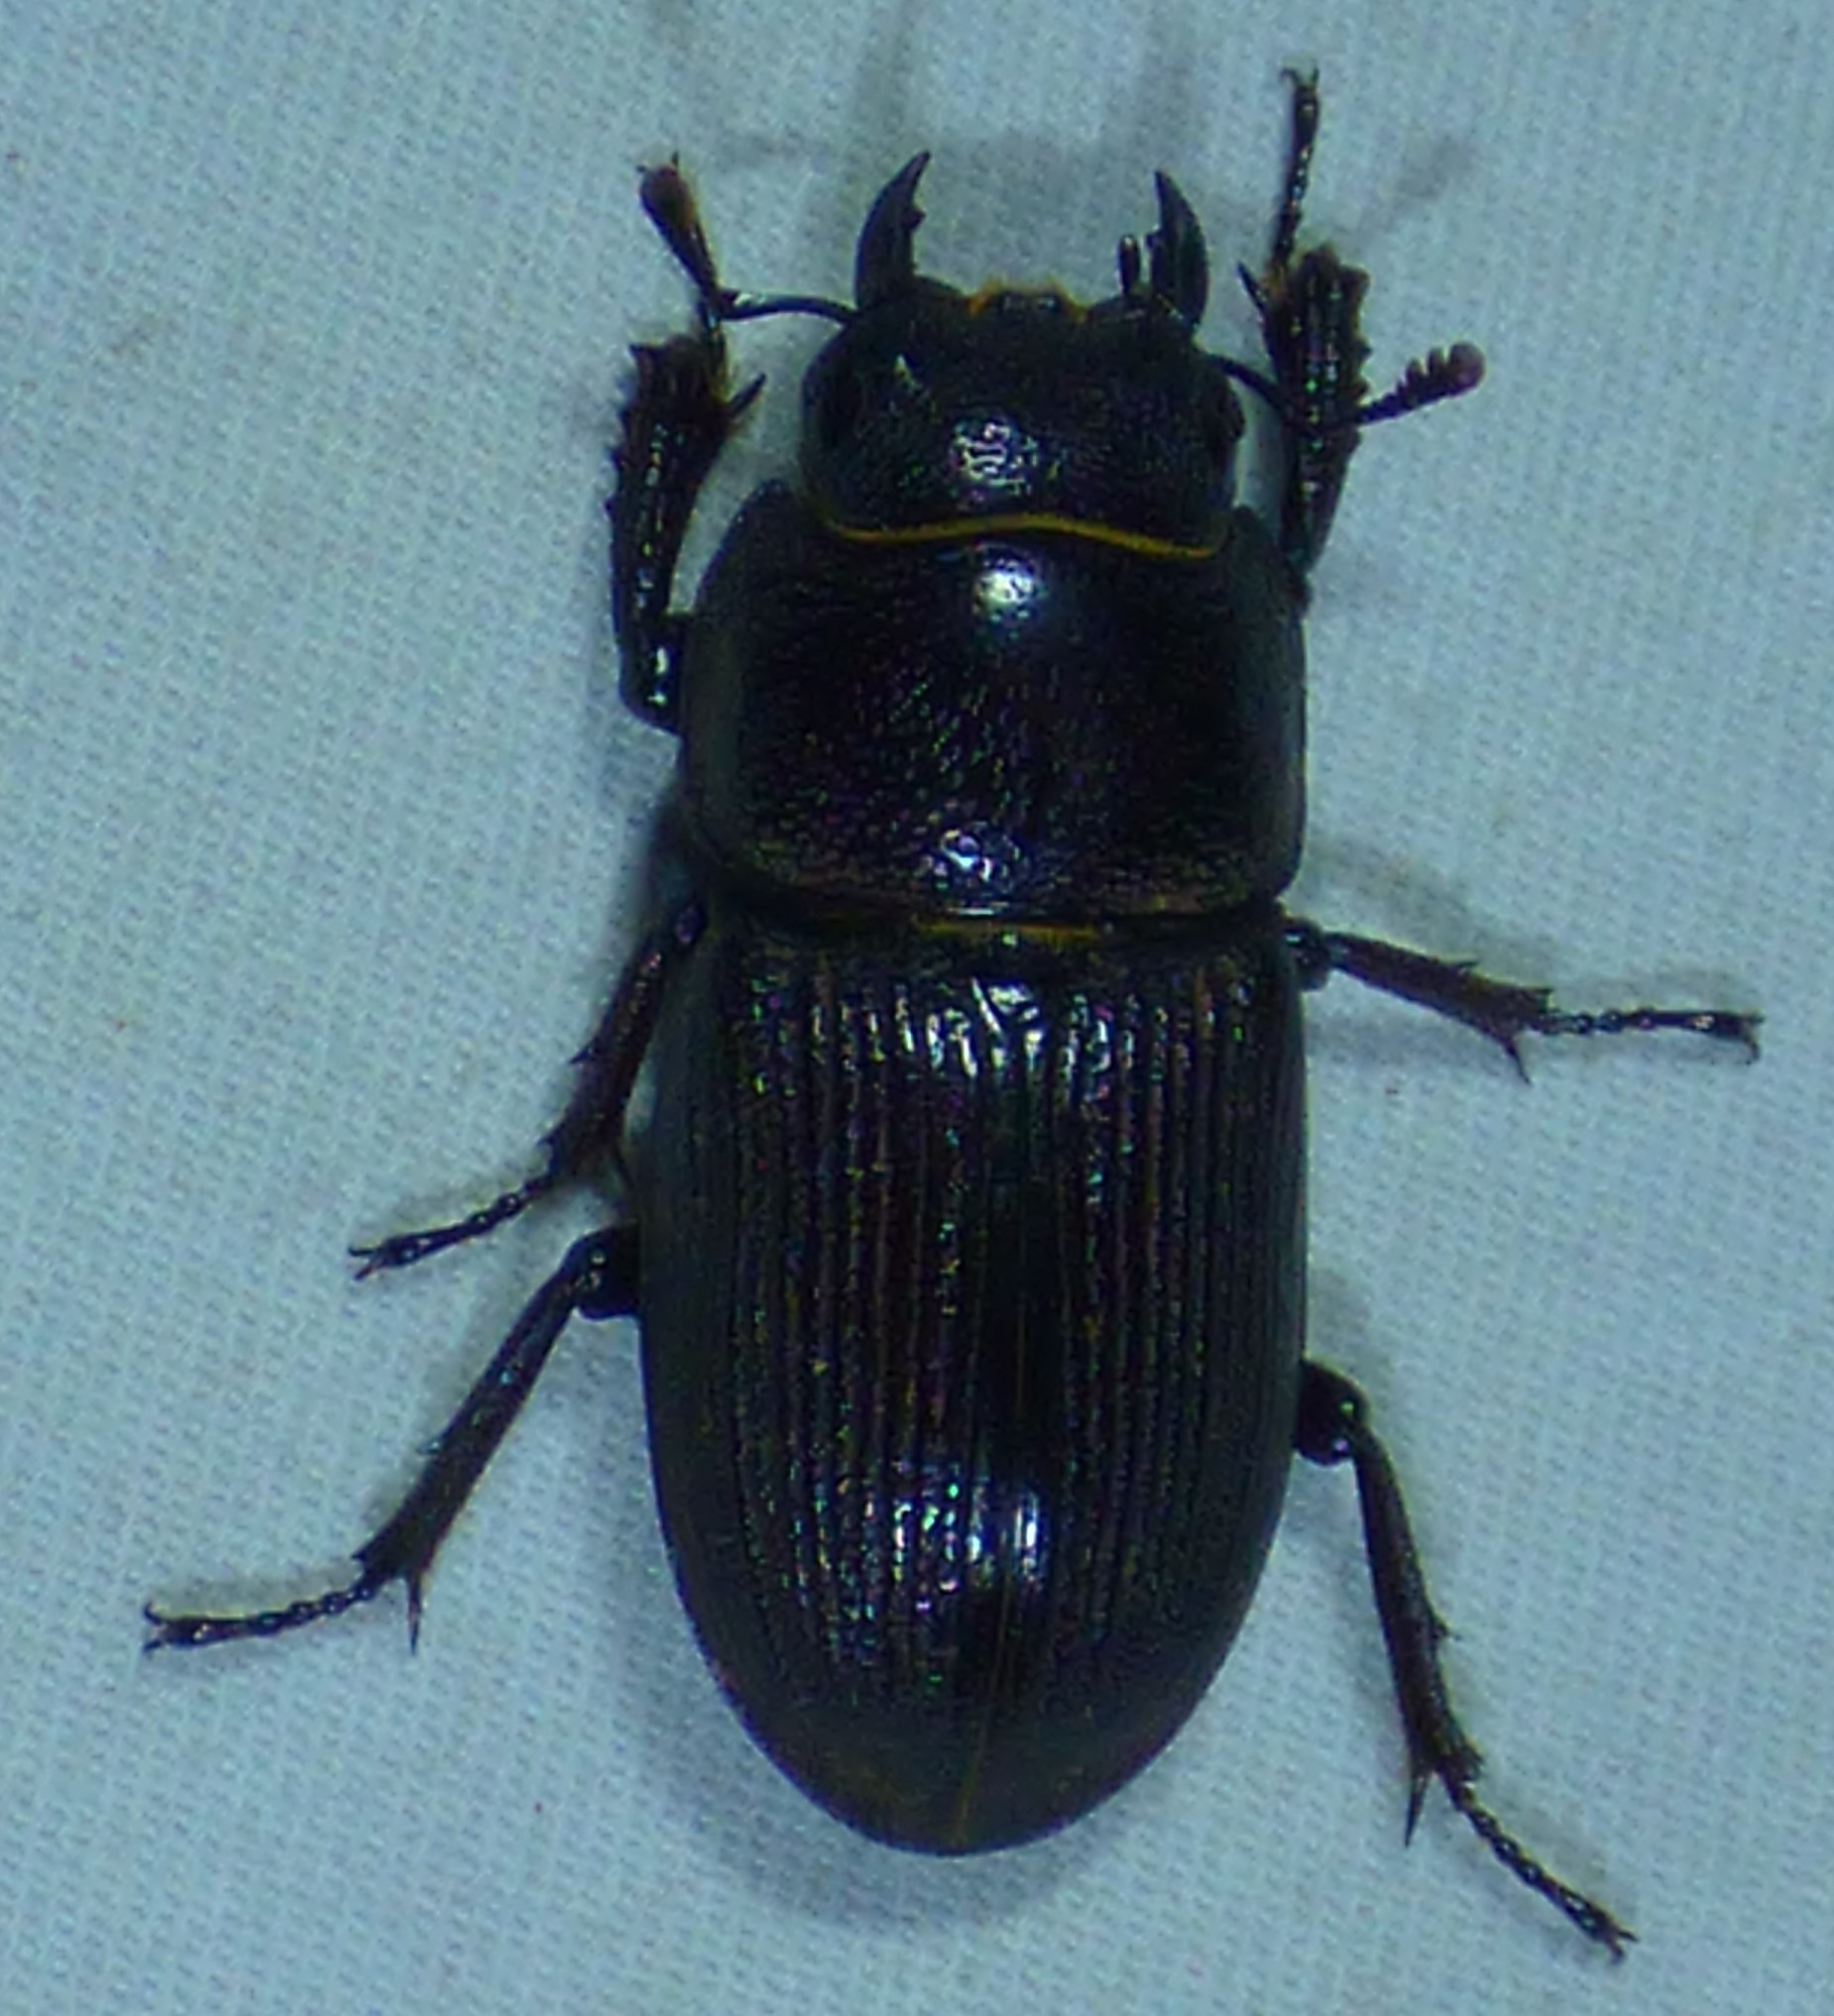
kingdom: Animalia
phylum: Arthropoda
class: Insecta
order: Coleoptera
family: Lucanidae
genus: Dorcus
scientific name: Dorcus parallelus
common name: Antelope beetle
